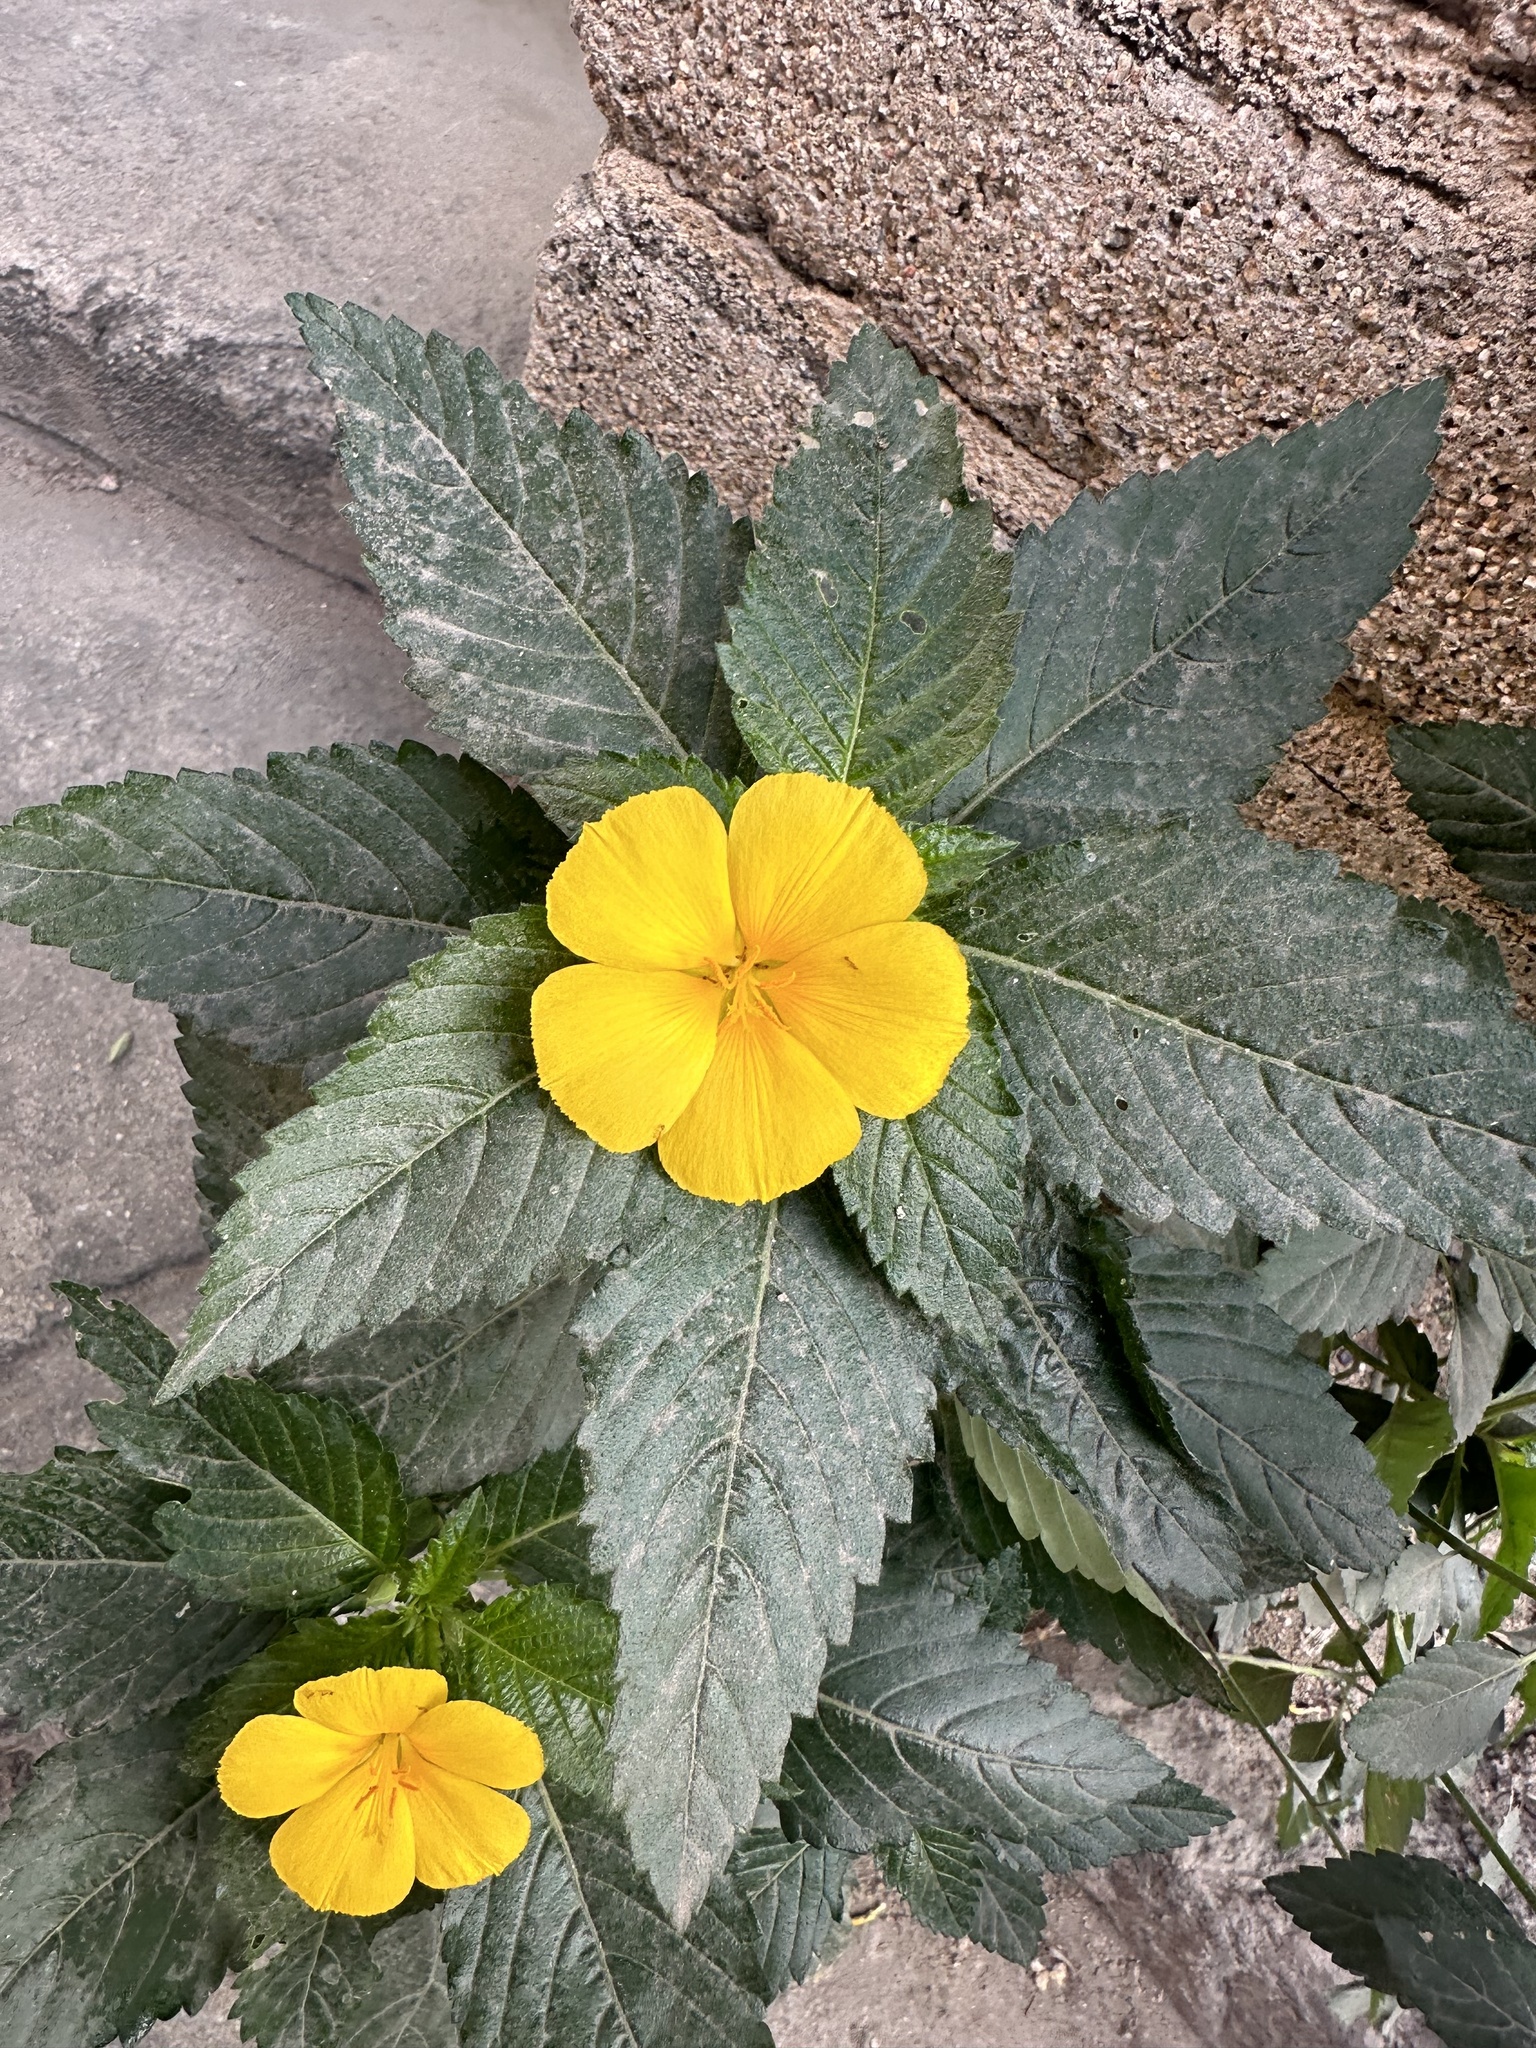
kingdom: Plantae
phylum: Tracheophyta
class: Magnoliopsida
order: Malpighiales
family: Turneraceae
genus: Turnera
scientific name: Turnera ulmifolia
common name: Ramgoat dashalong
